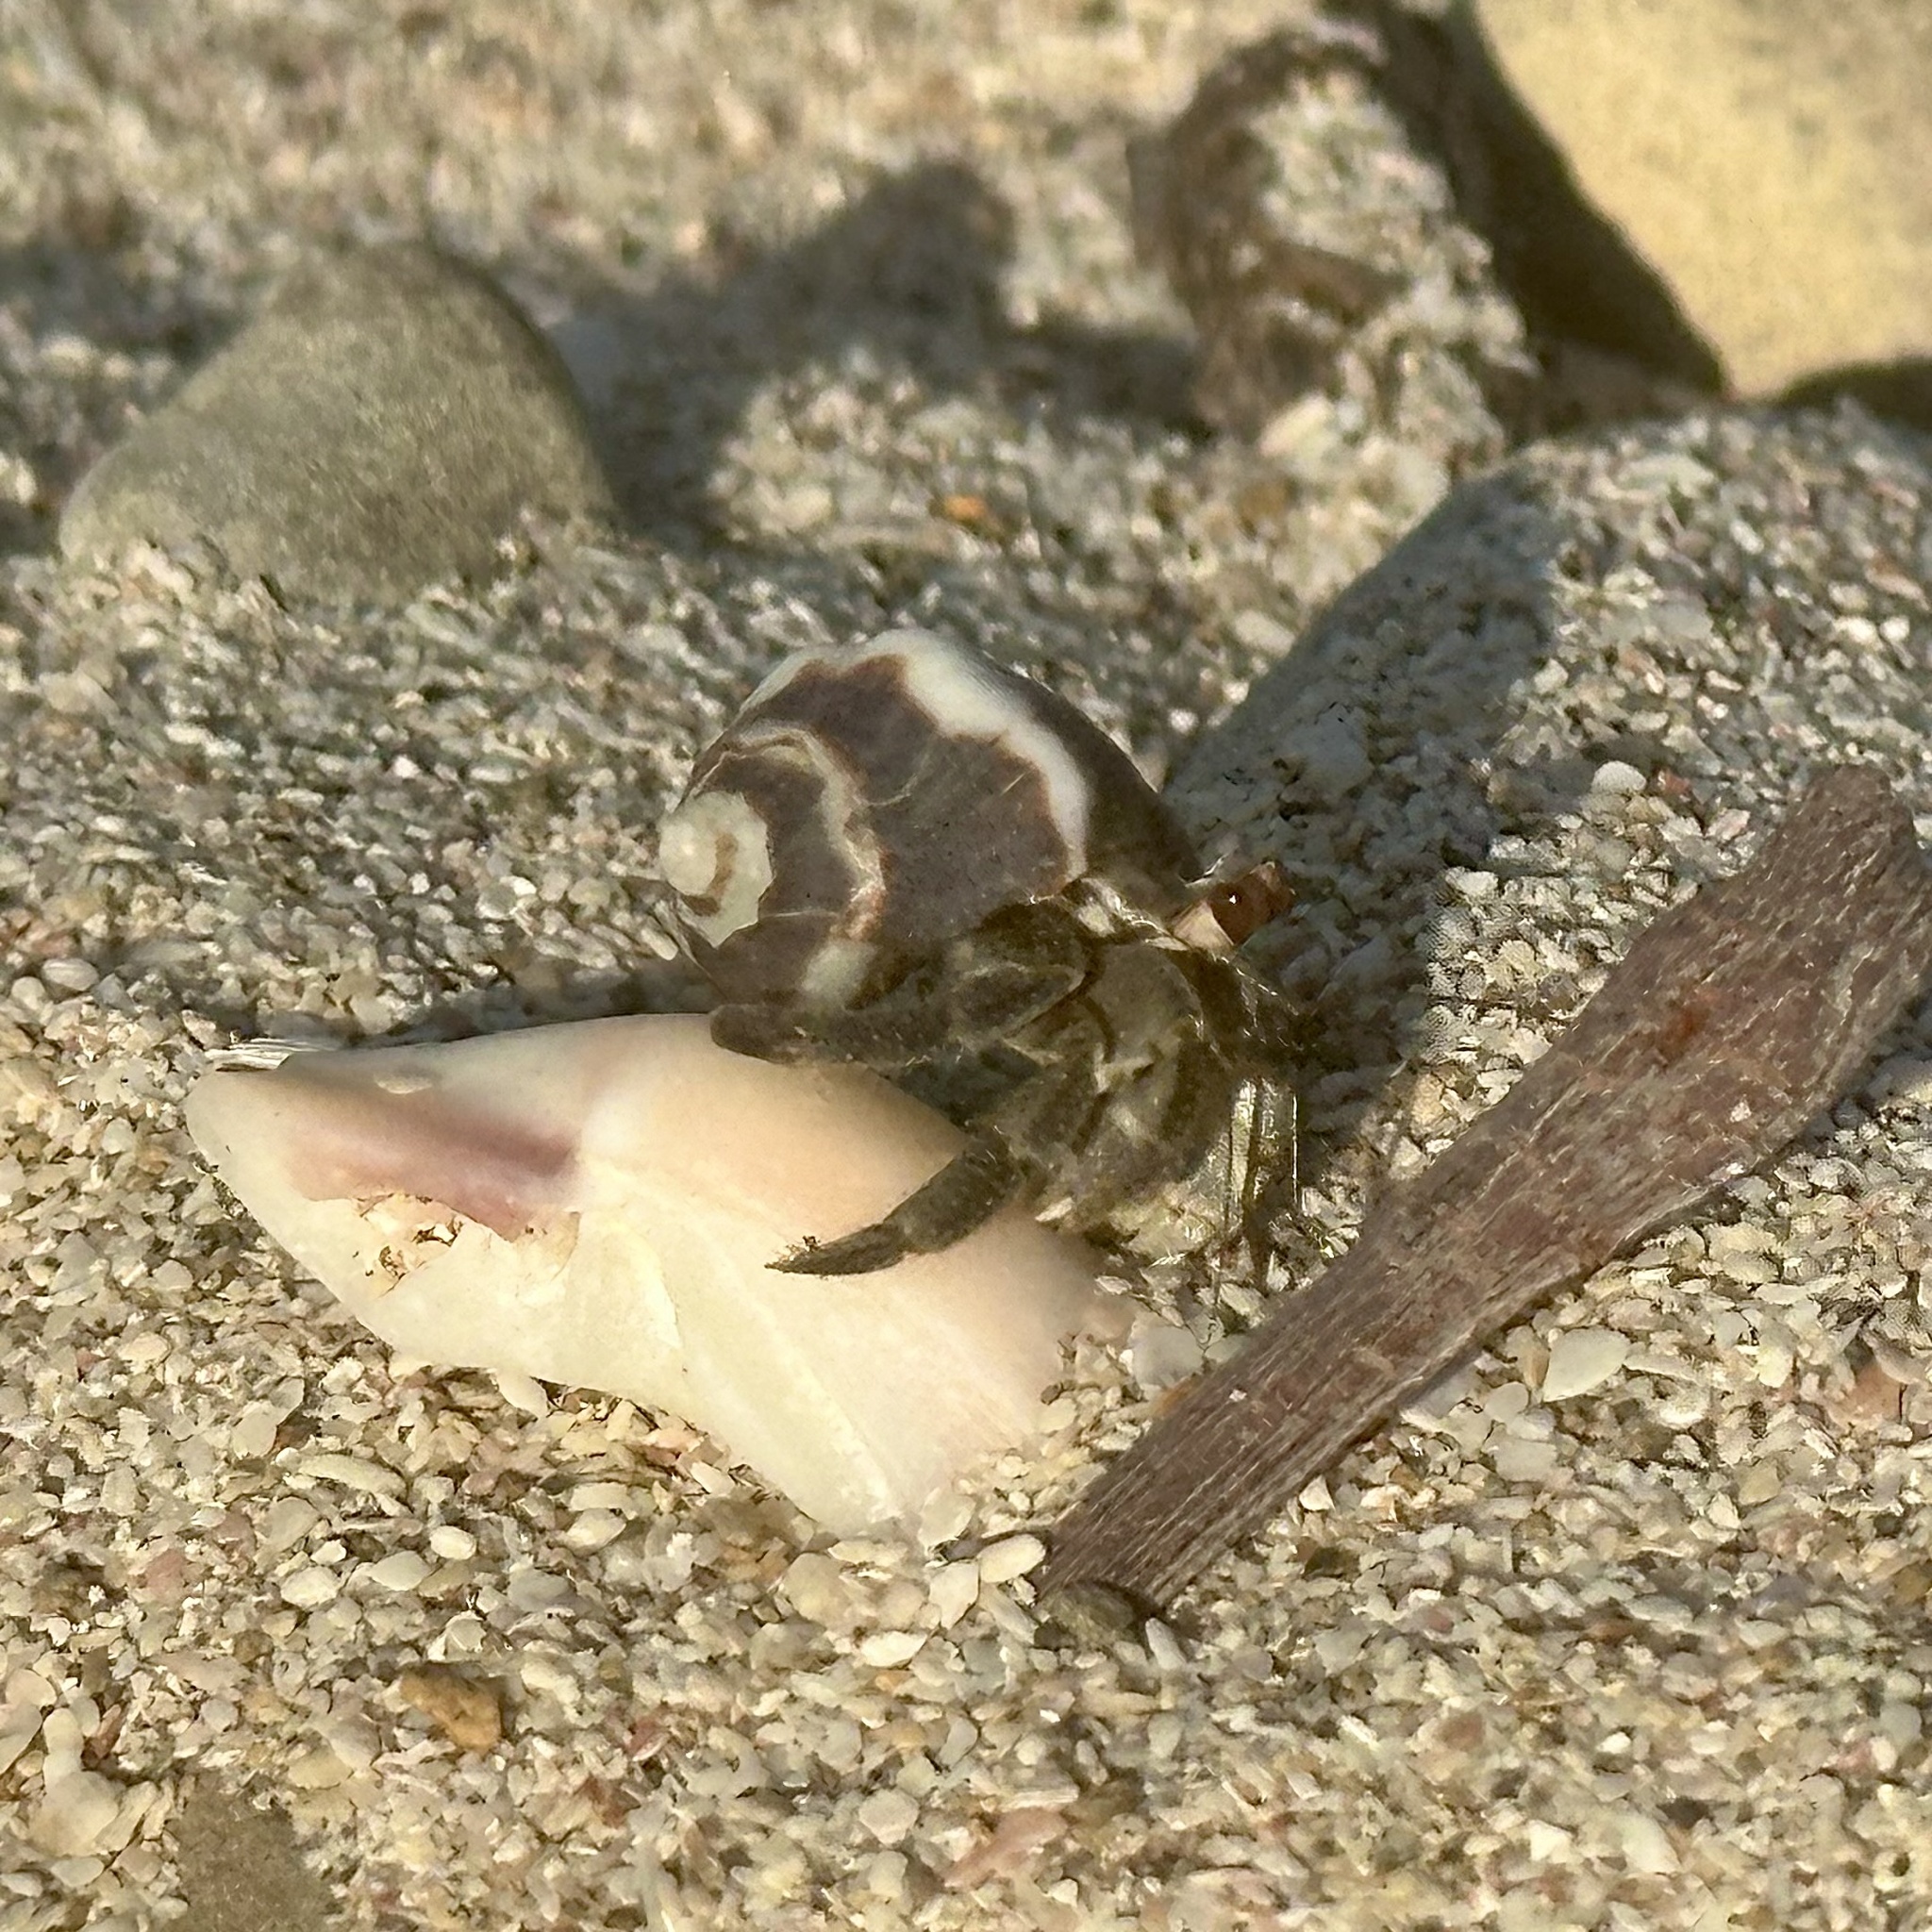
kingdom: Animalia
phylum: Arthropoda
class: Malacostraca
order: Decapoda
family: Coenobitidae
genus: Coenobita
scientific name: Coenobita compressus
